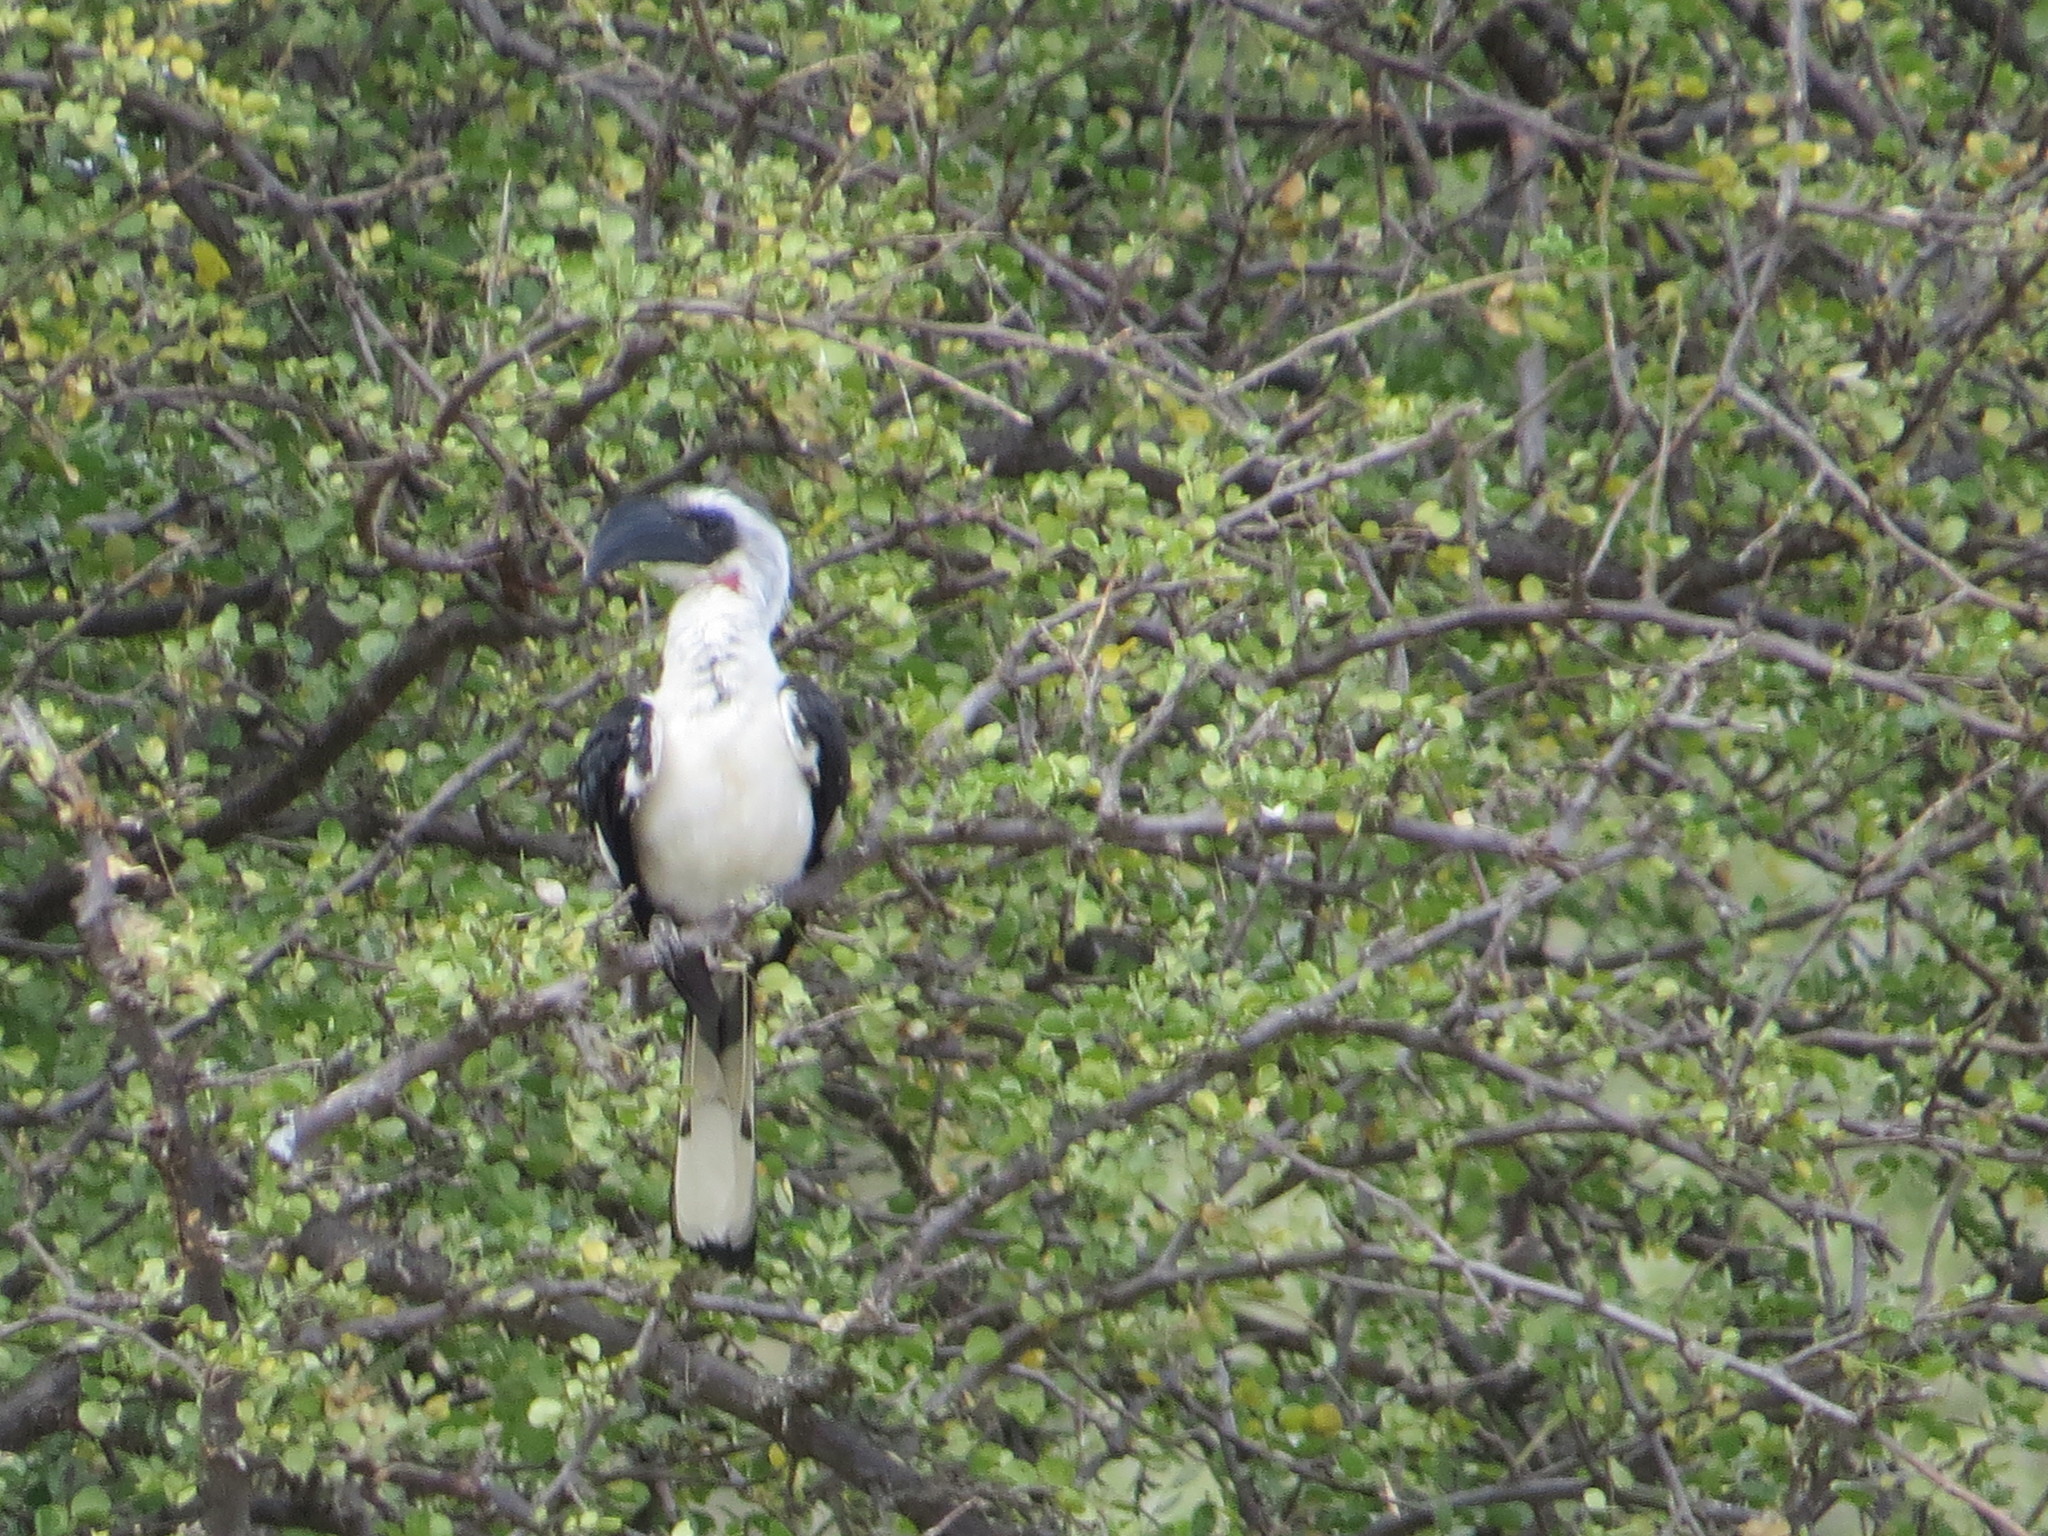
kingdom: Animalia
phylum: Chordata
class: Aves
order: Bucerotiformes
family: Bucerotidae
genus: Tockus
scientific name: Tockus deckeni
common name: Von der decken's hornbill
